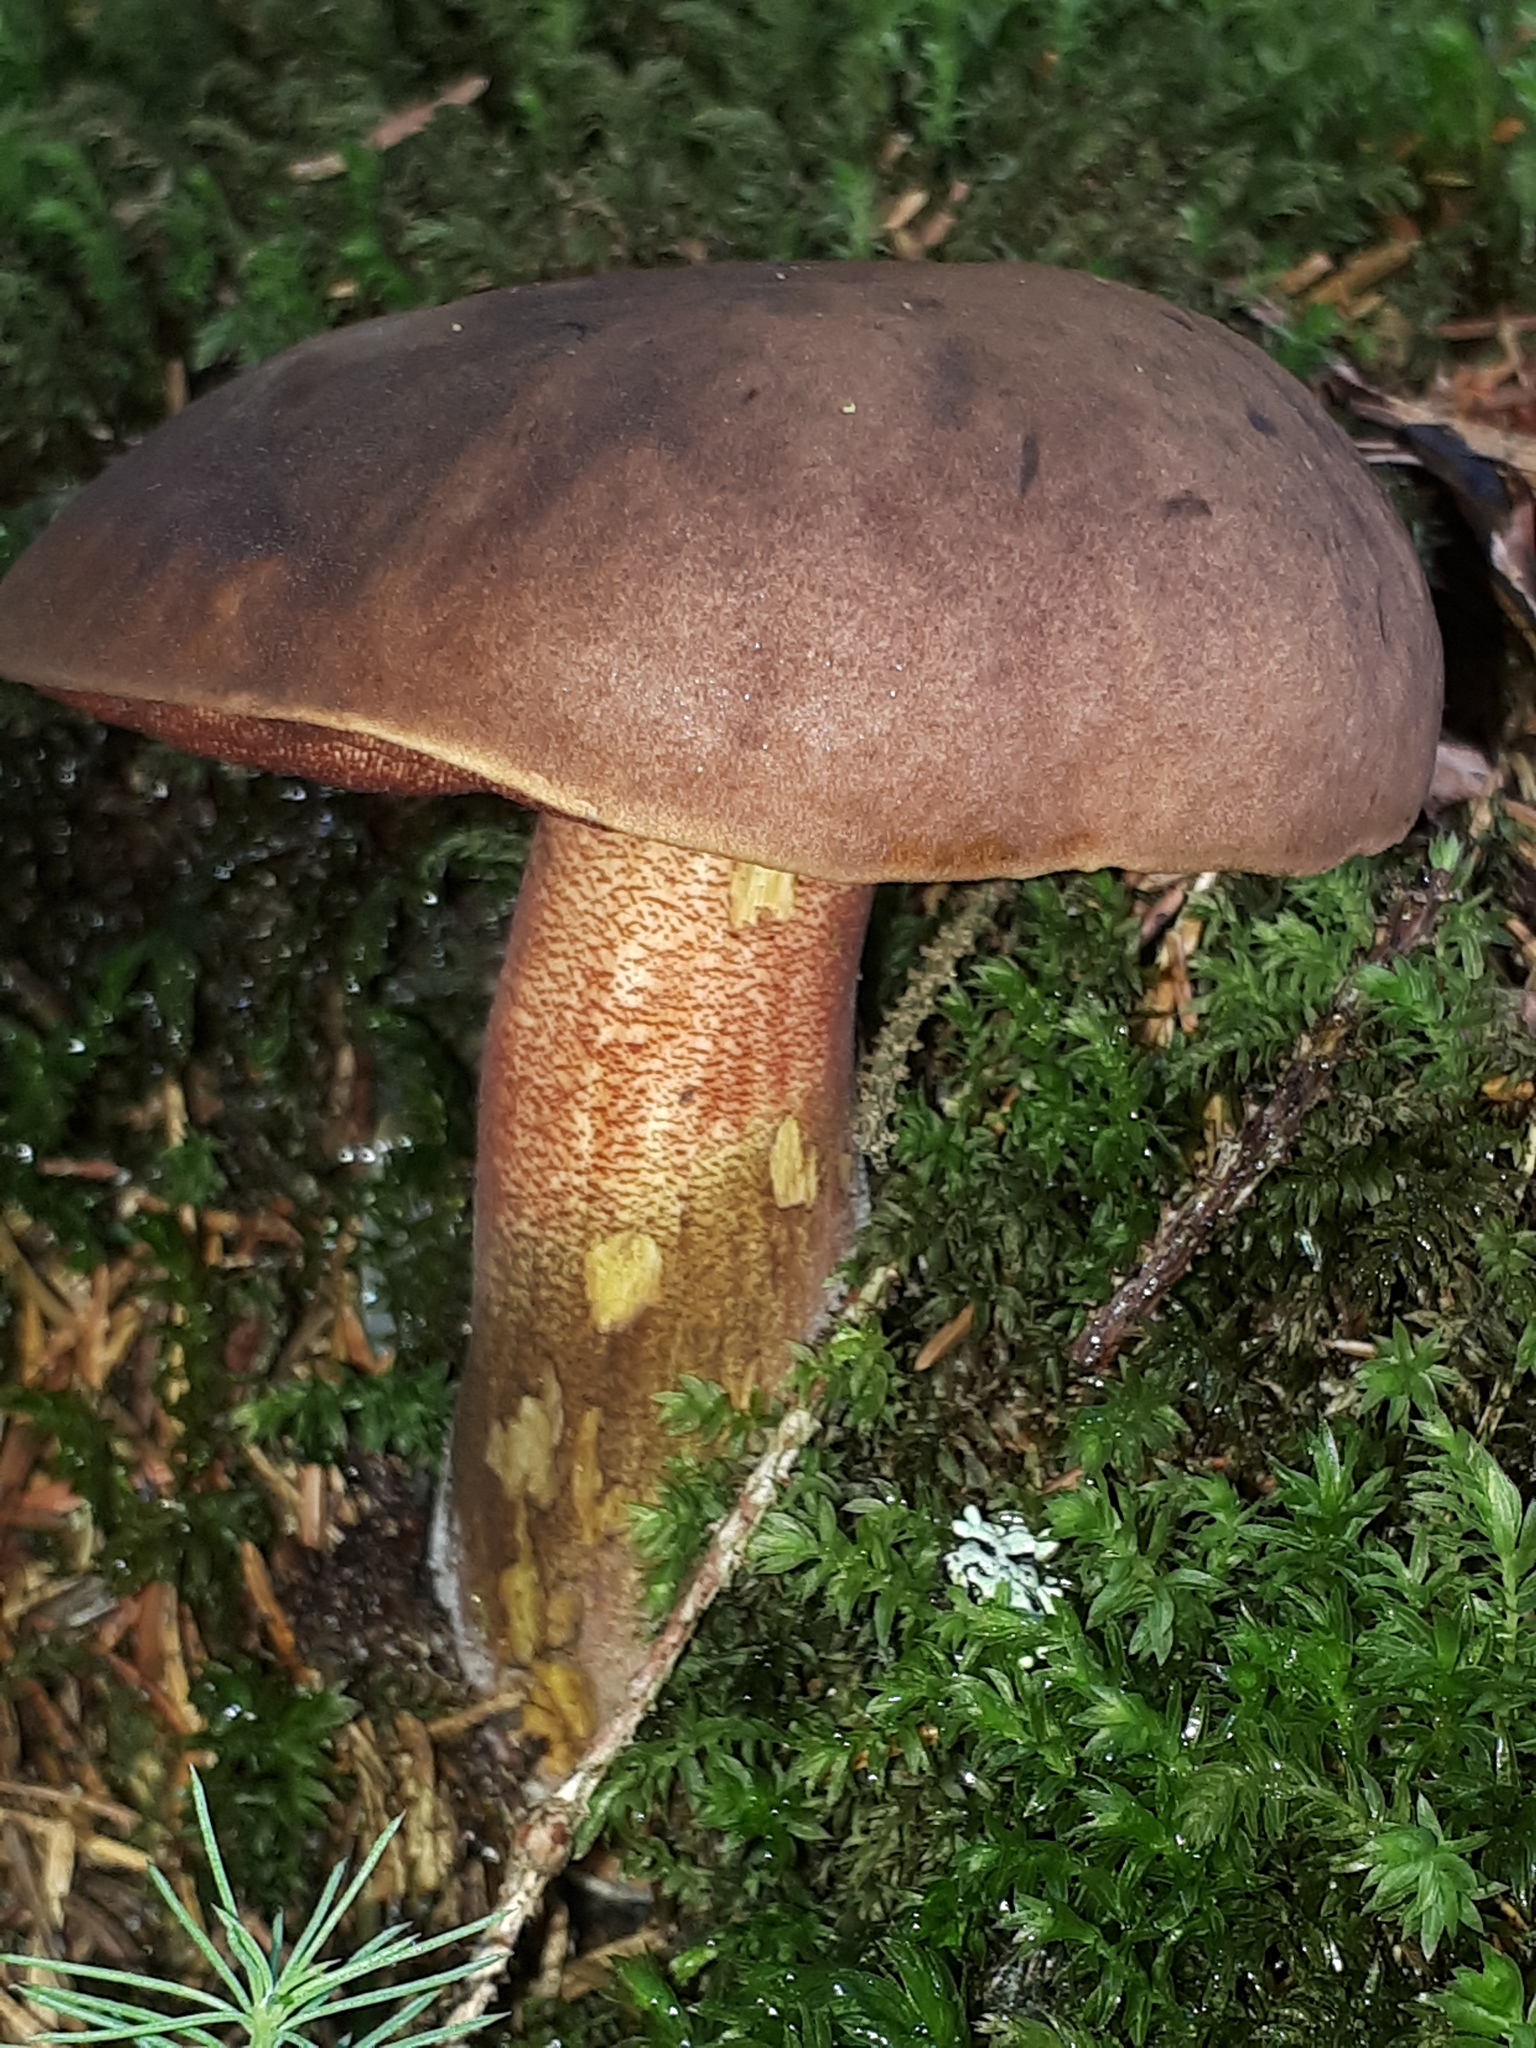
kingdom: Fungi
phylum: Basidiomycota
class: Agaricomycetes
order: Boletales
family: Boletaceae
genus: Neoboletus
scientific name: Neoboletus erythropus
